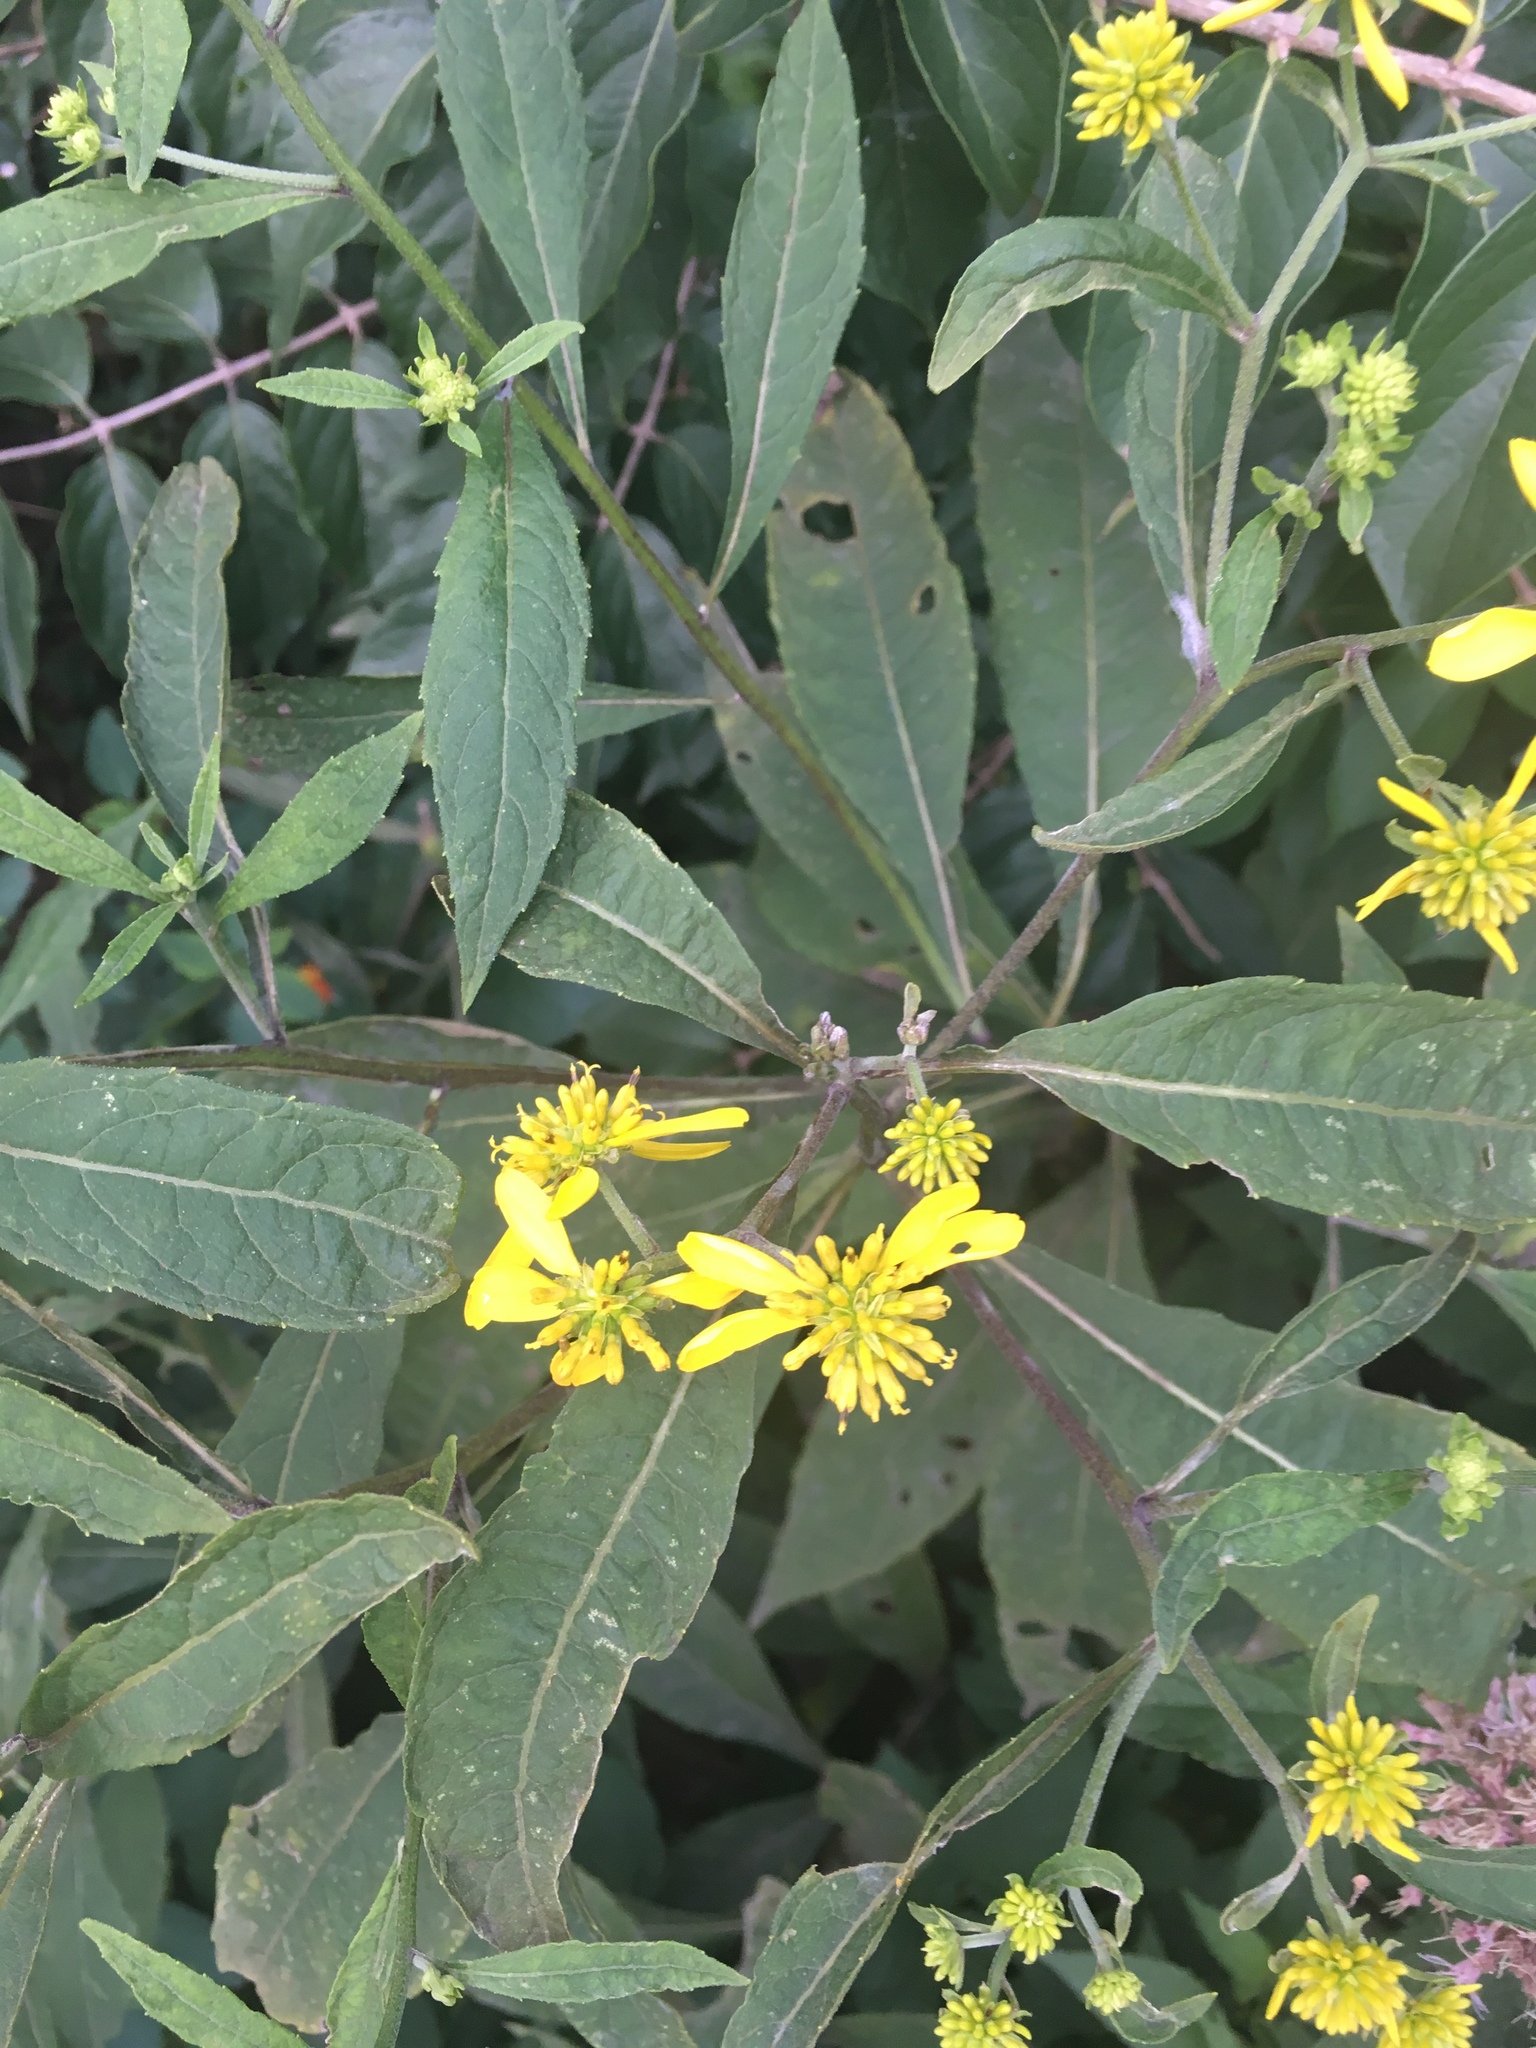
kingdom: Plantae
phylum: Tracheophyta
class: Magnoliopsida
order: Asterales
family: Asteraceae
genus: Verbesina
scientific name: Verbesina alternifolia
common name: Wingstem
